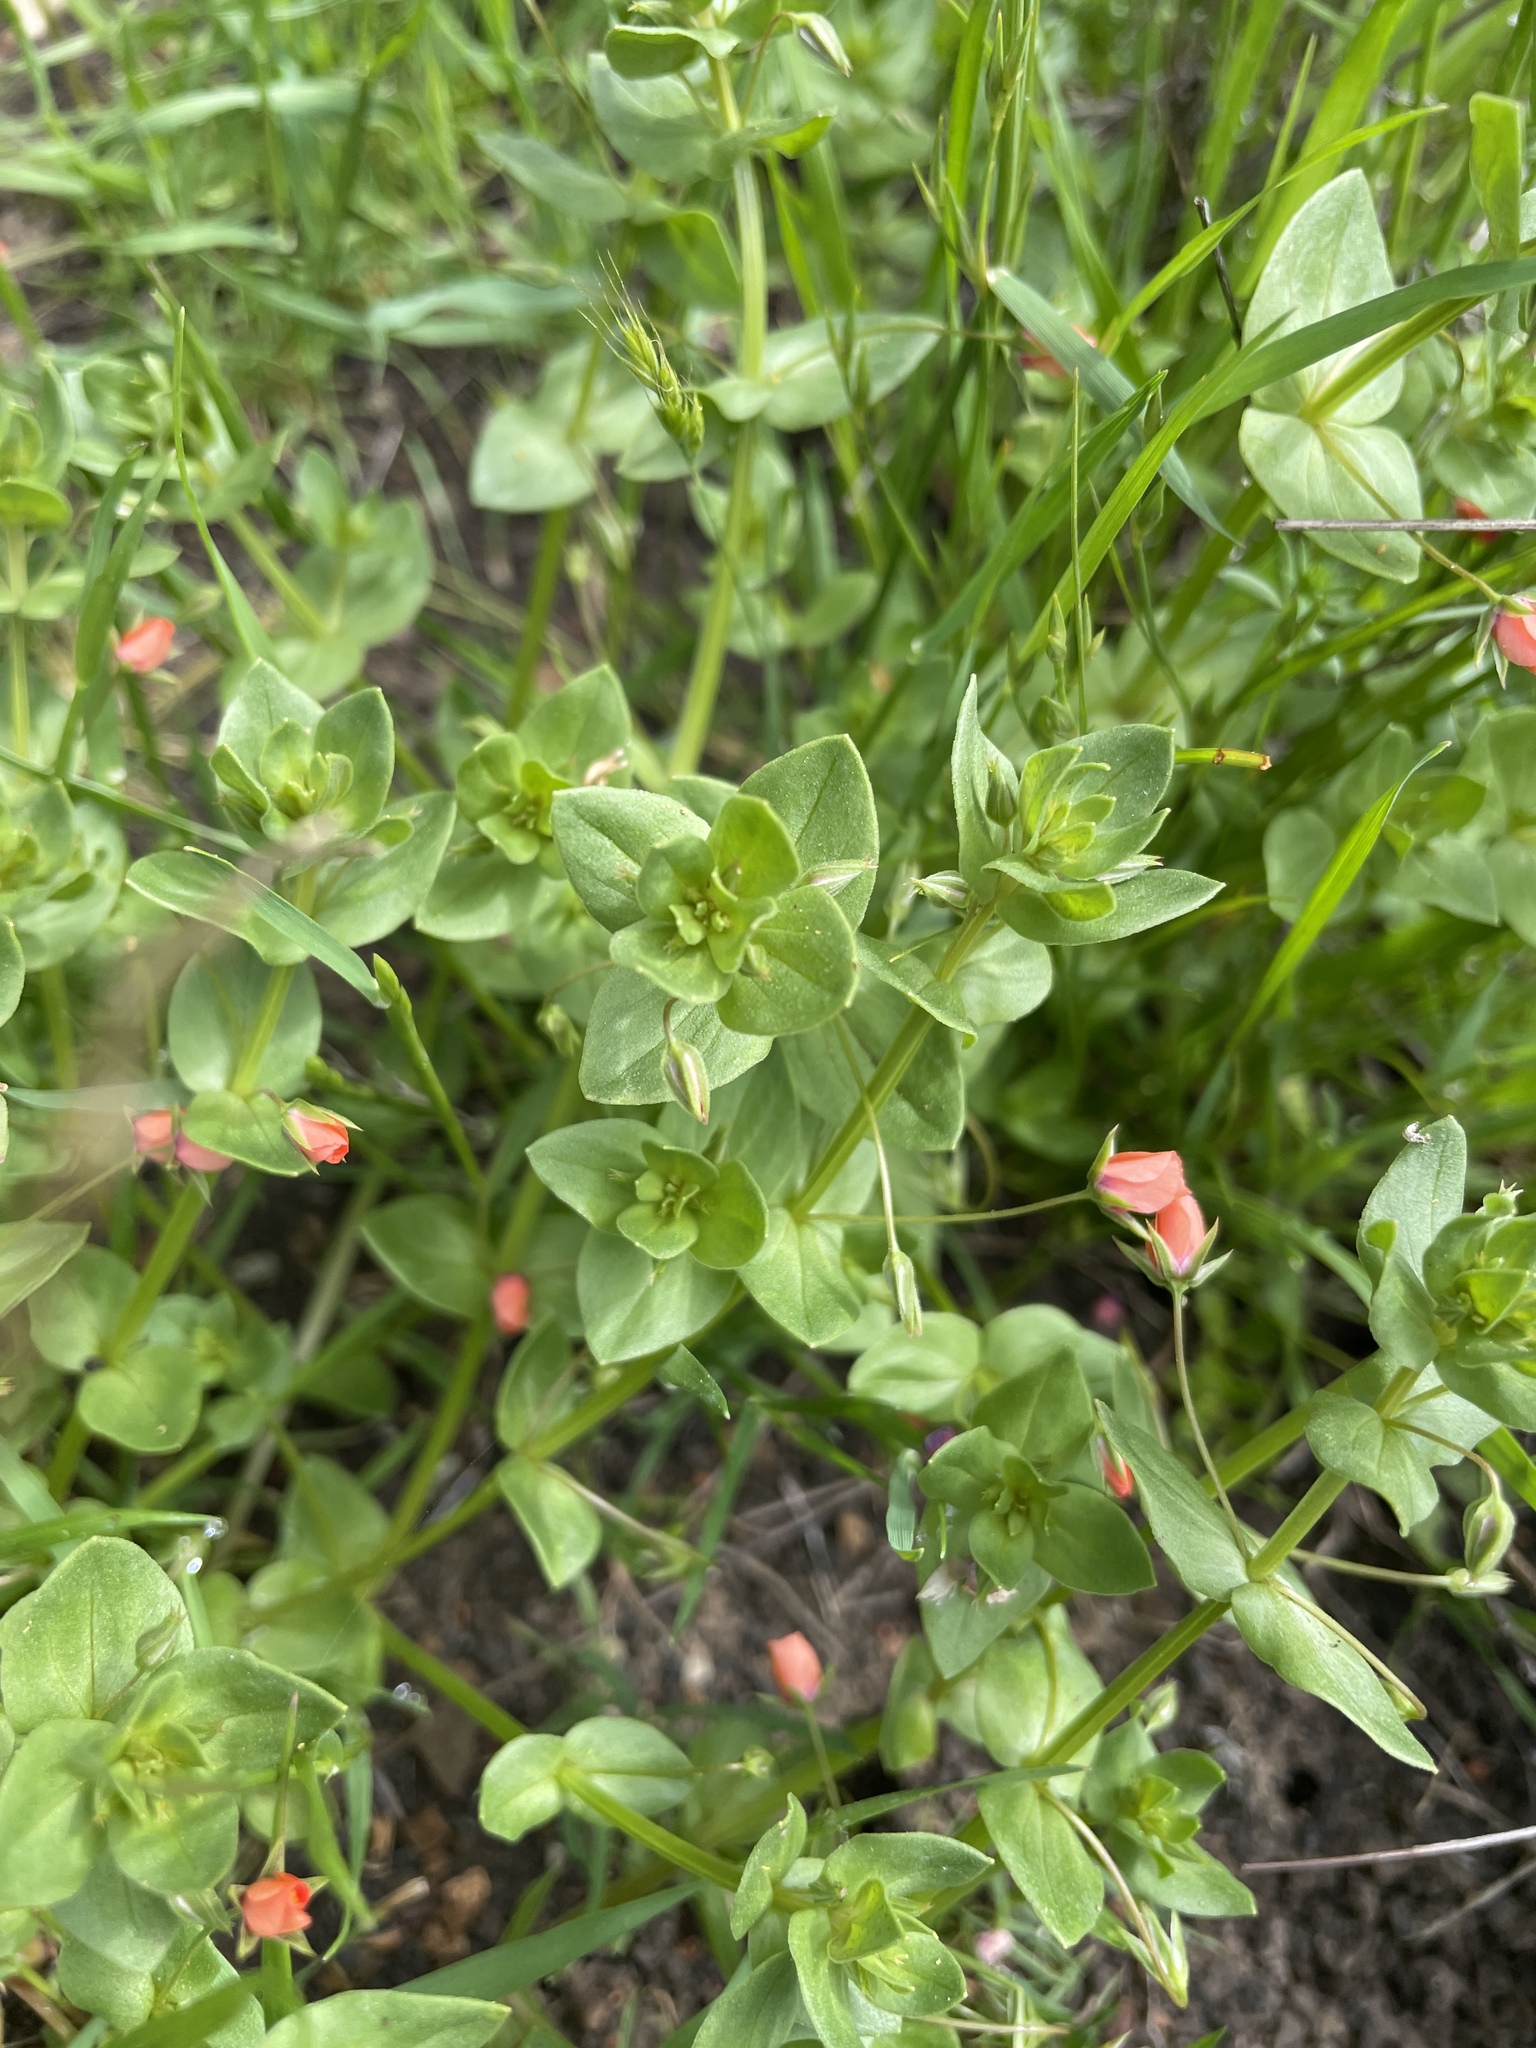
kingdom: Plantae
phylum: Tracheophyta
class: Magnoliopsida
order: Ericales
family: Primulaceae
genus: Lysimachia
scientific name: Lysimachia arvensis
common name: Scarlet pimpernel
